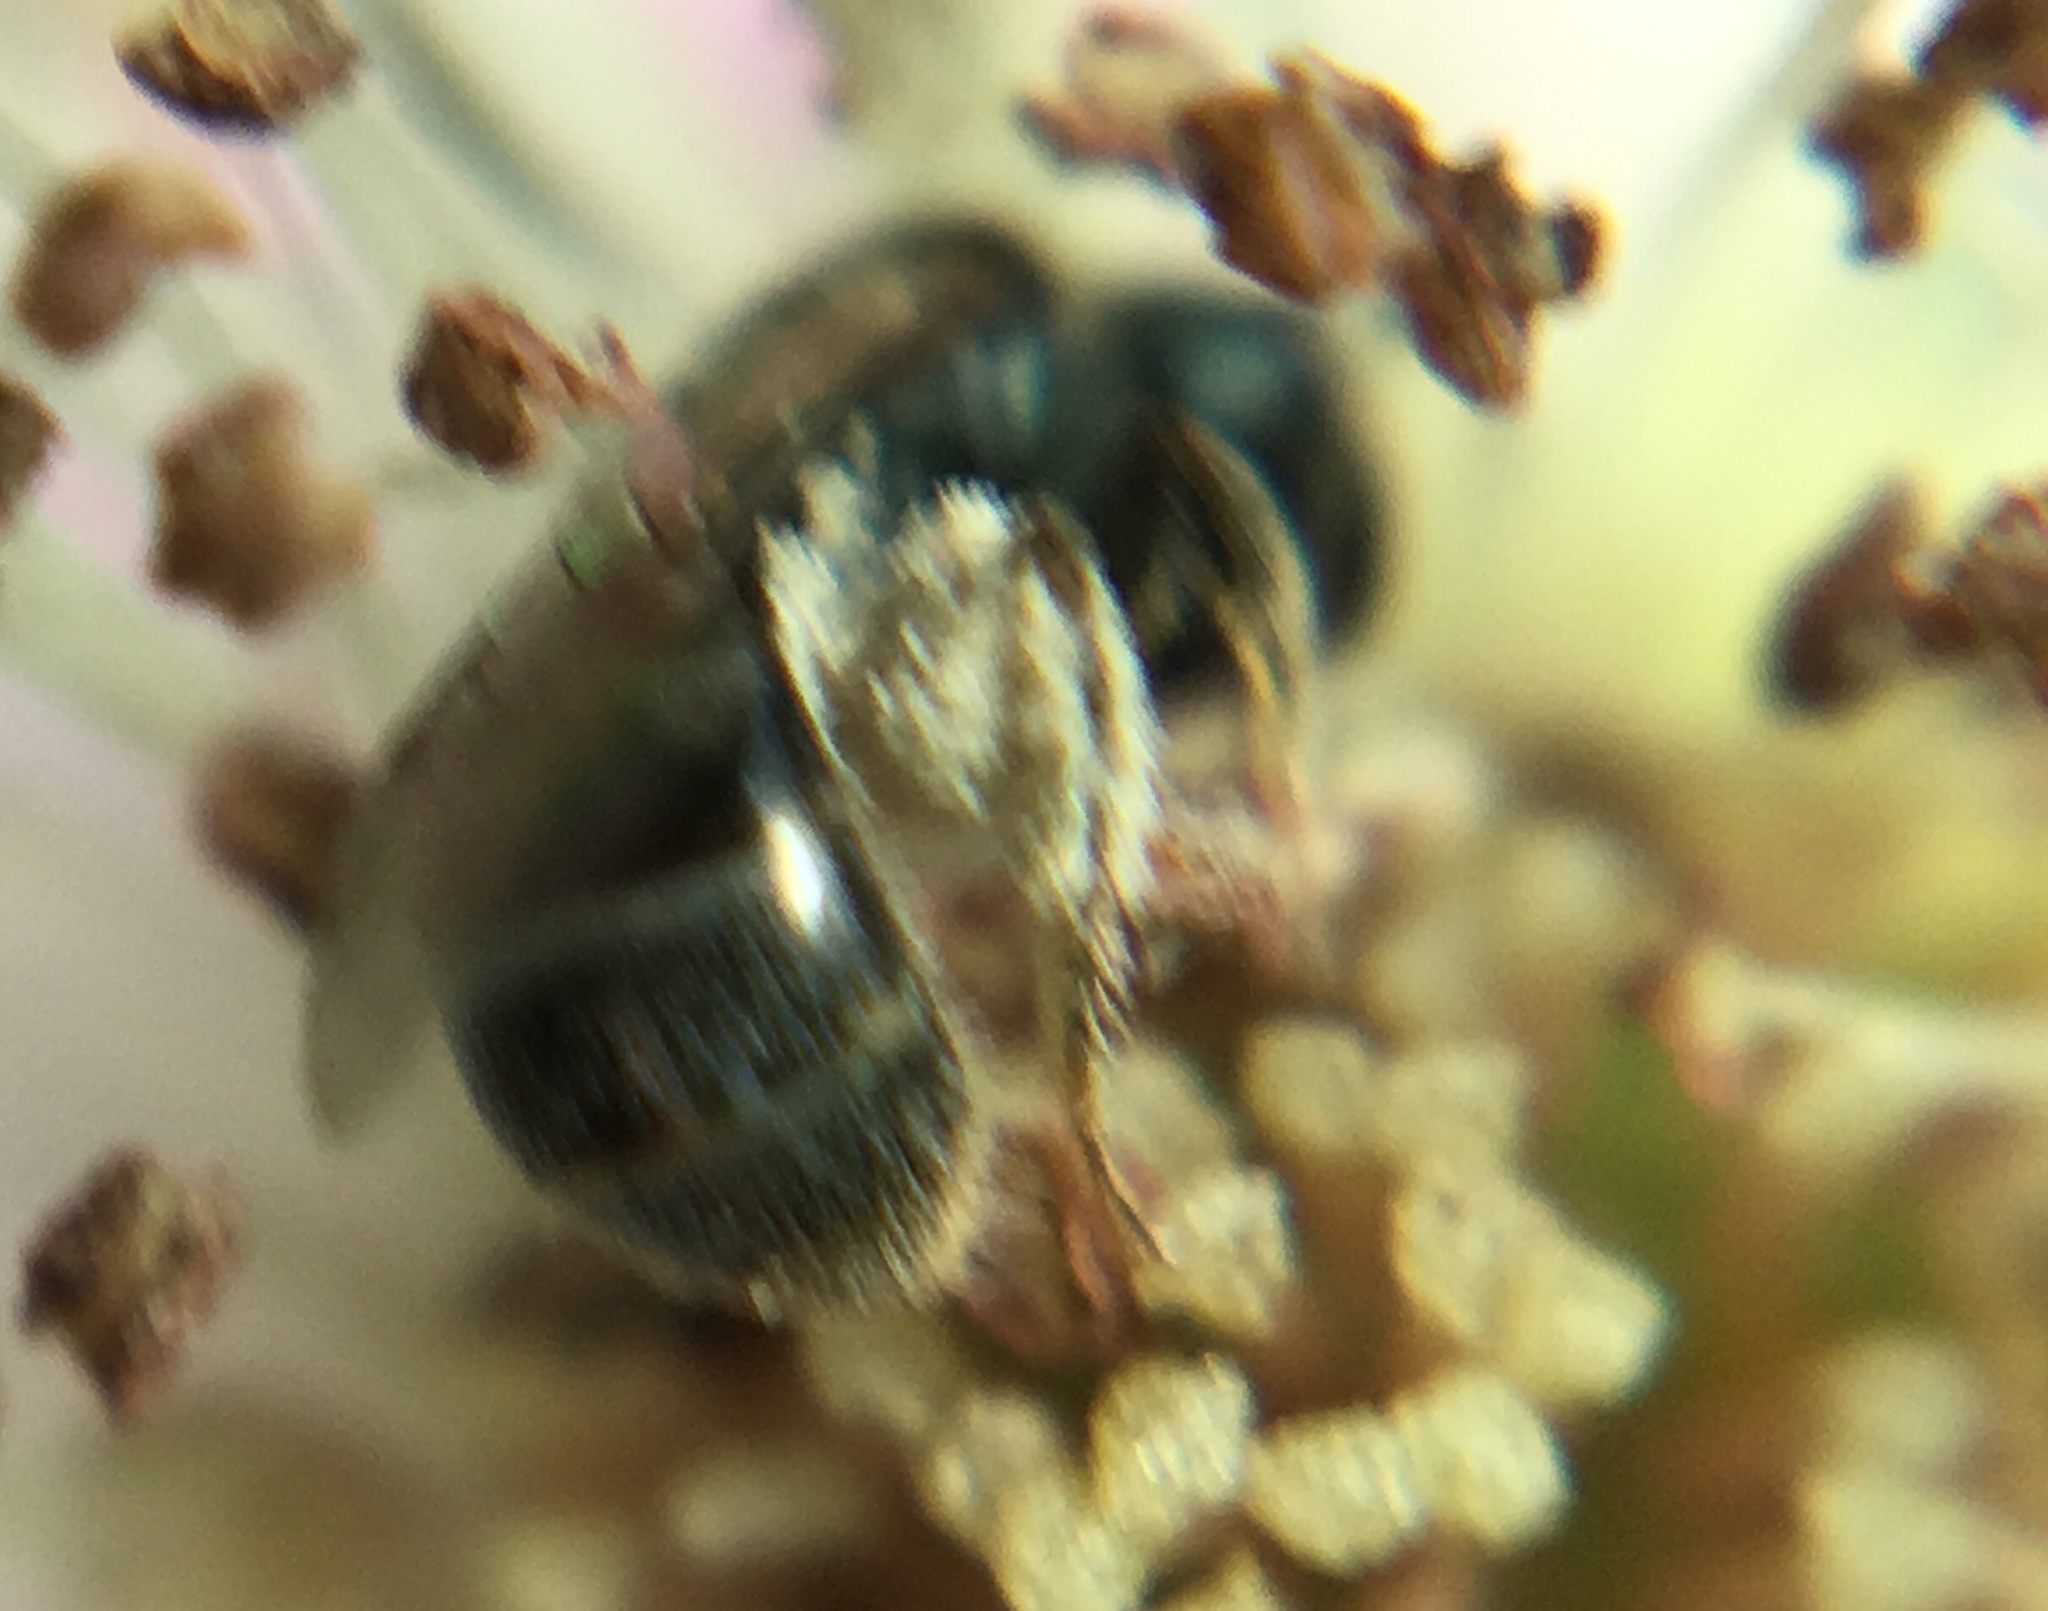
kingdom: Animalia
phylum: Arthropoda
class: Insecta
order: Hymenoptera
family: Halictidae
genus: Lasioglossum
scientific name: Lasioglossum imitatum
